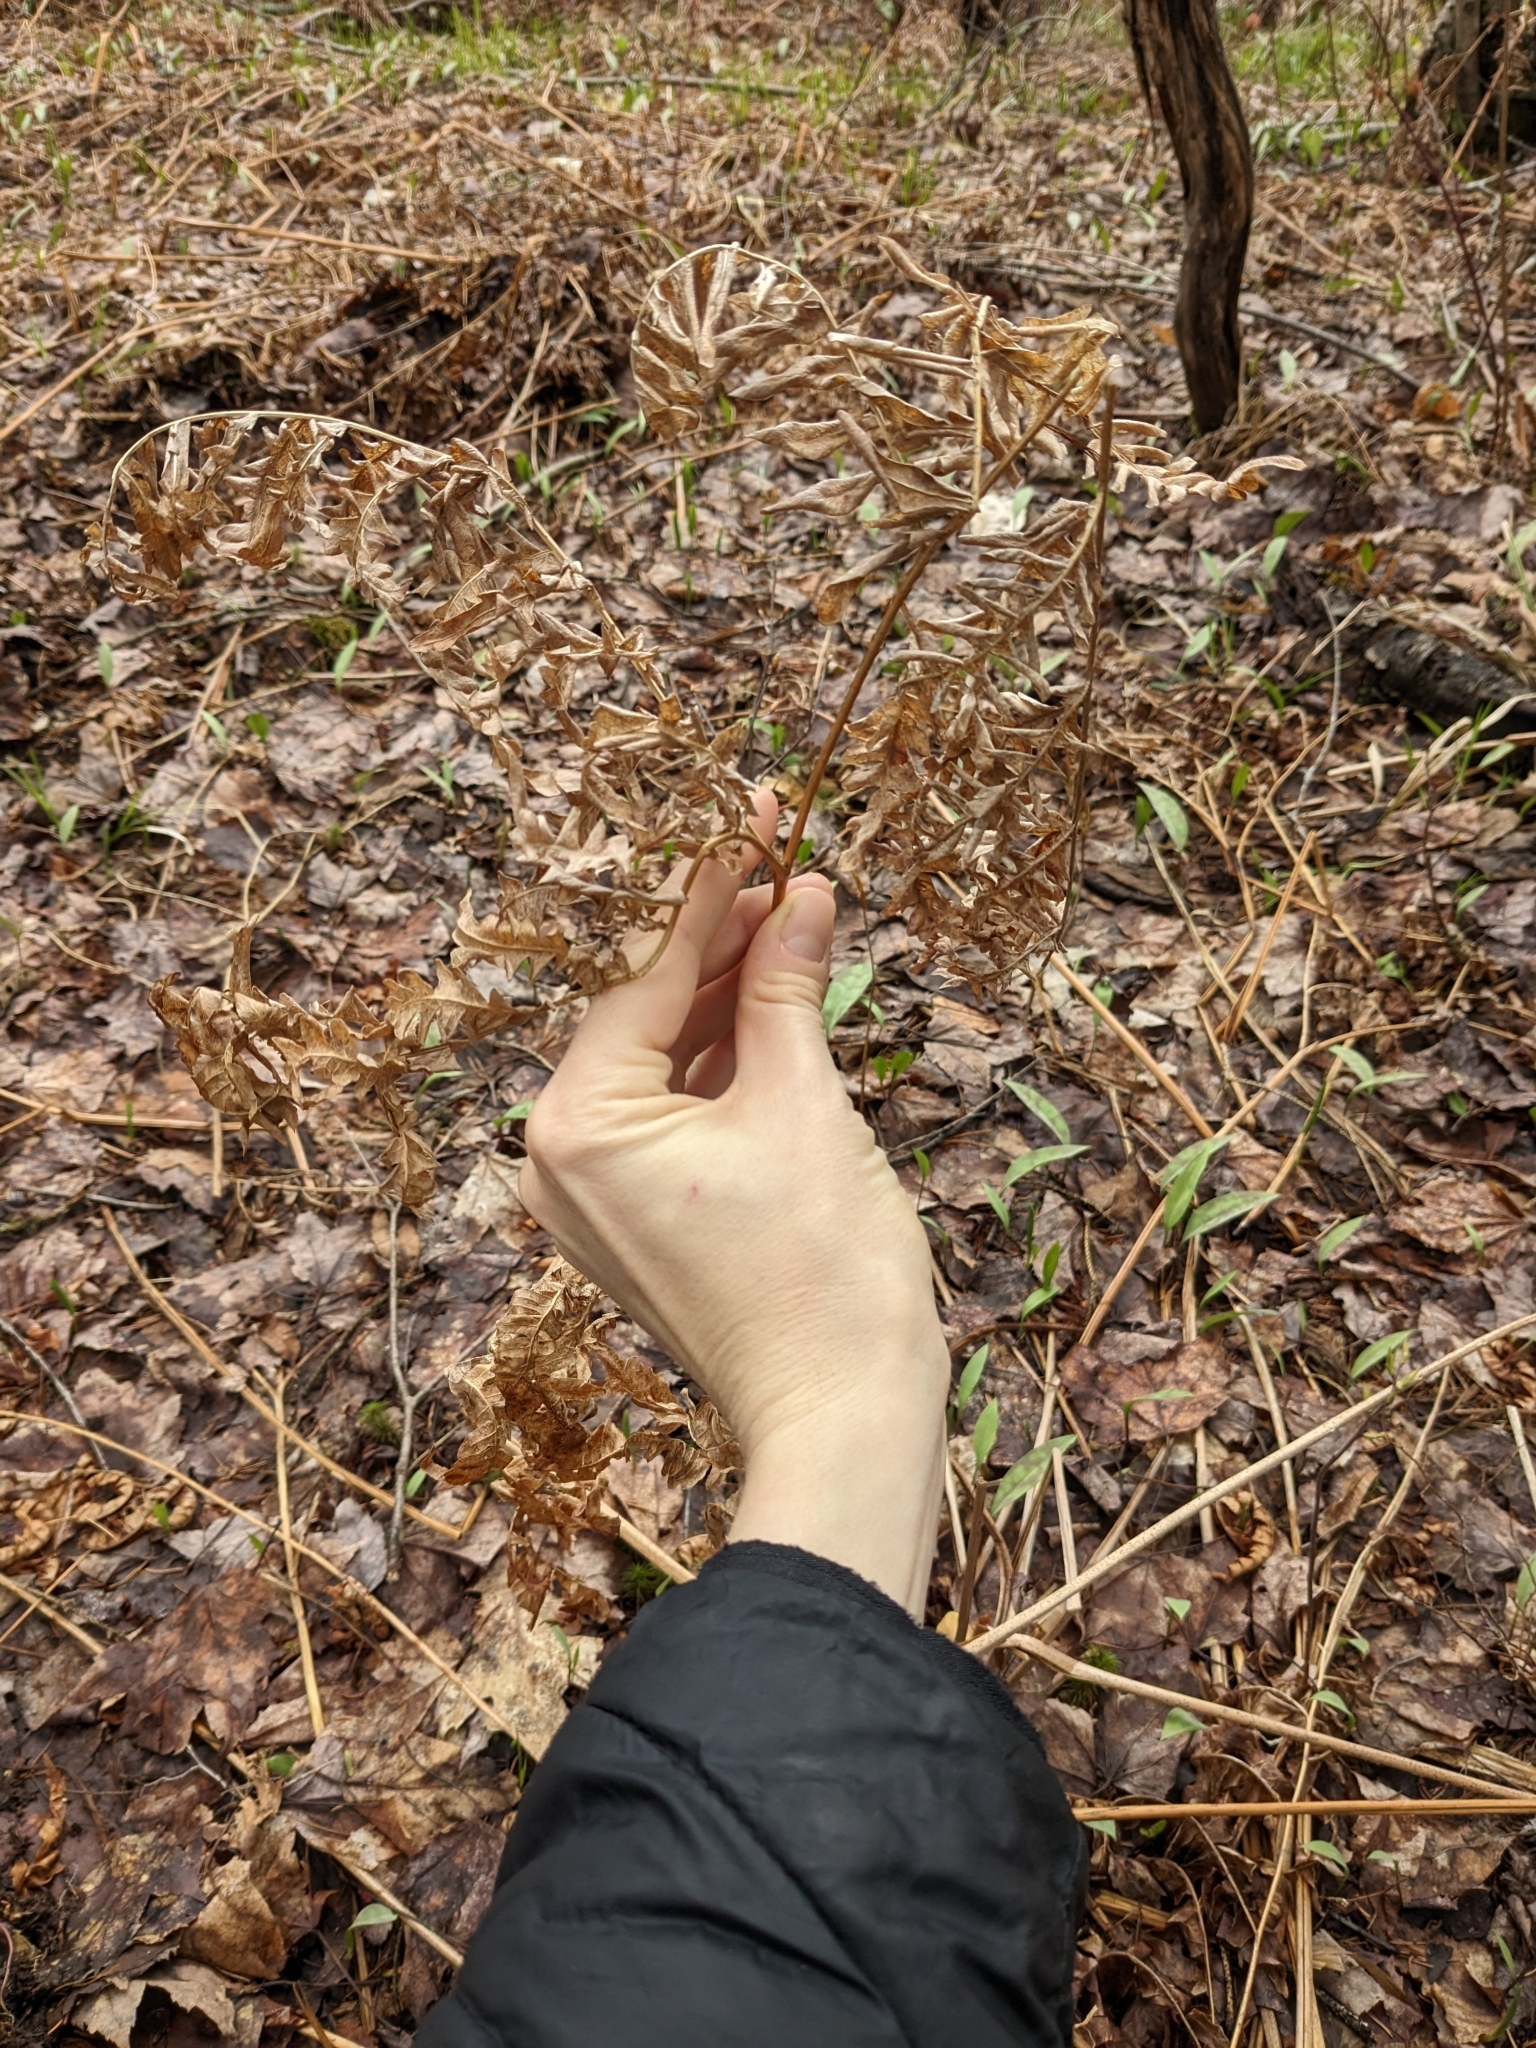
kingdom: Plantae
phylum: Tracheophyta
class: Polypodiopsida
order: Polypodiales
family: Dennstaedtiaceae
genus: Pteridium
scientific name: Pteridium aquilinum
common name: Bracken
